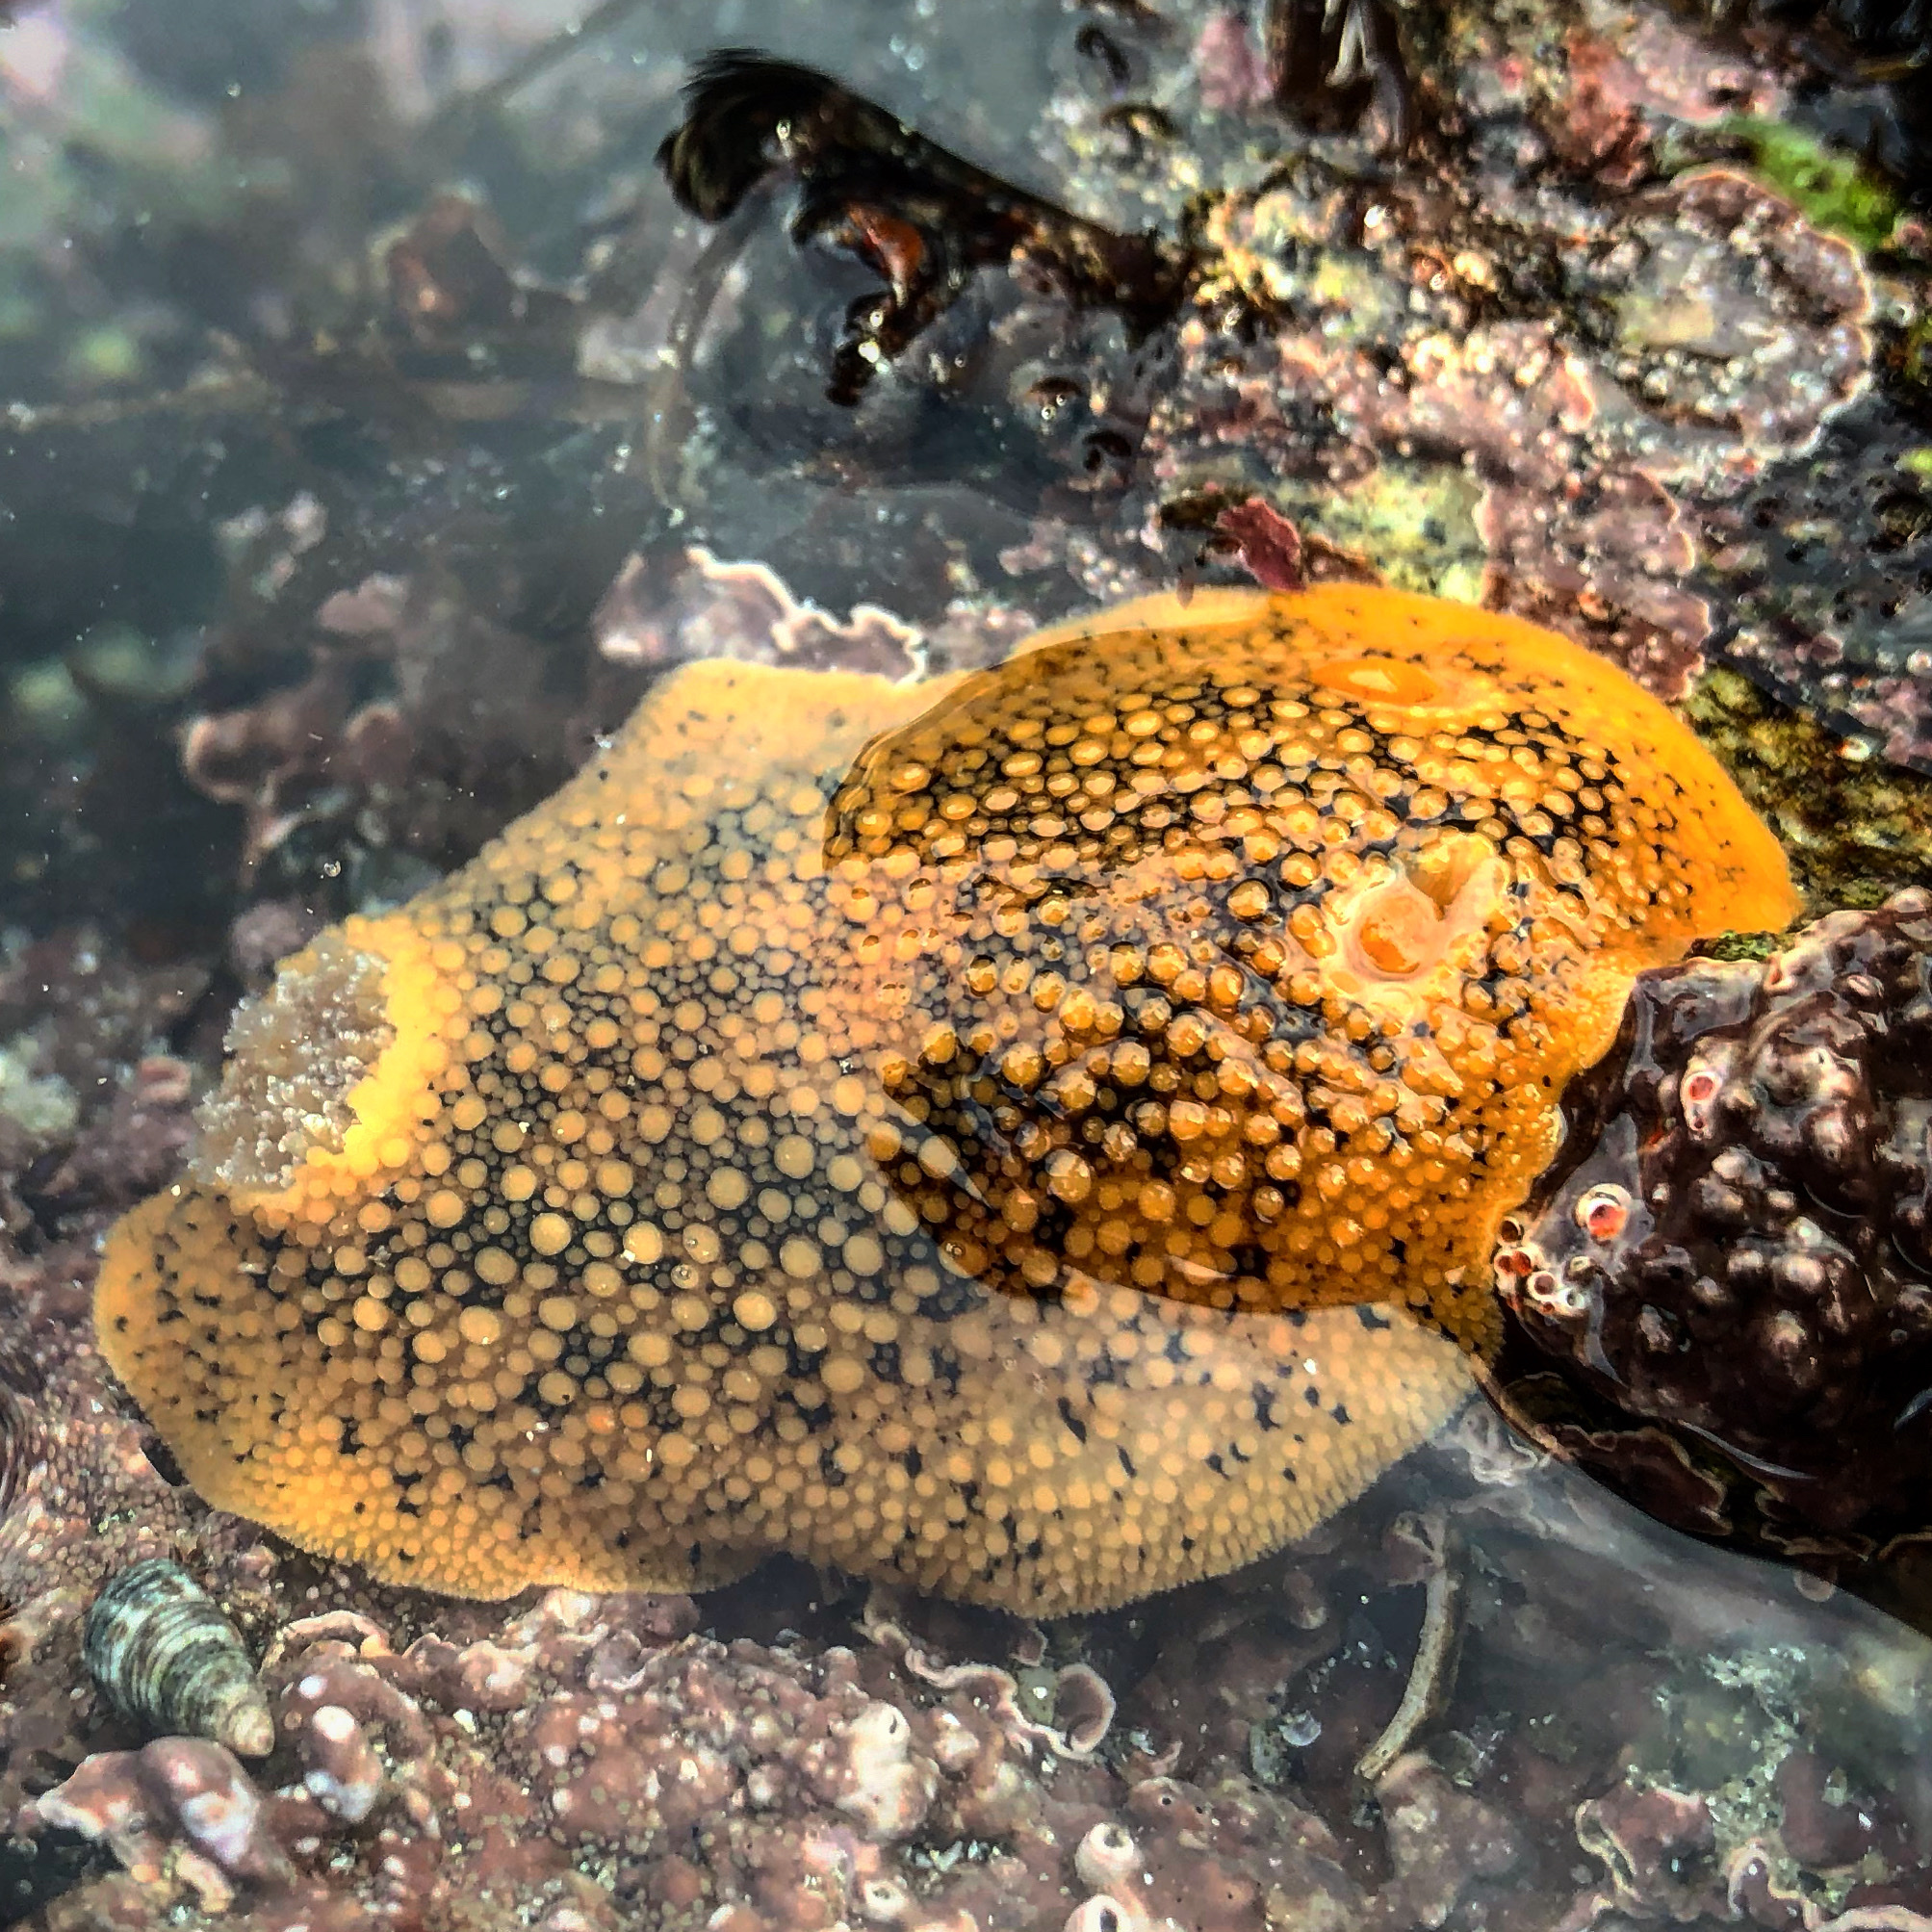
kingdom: Animalia
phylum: Mollusca
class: Gastropoda
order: Nudibranchia
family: Discodorididae
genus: Peltodoris
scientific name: Peltodoris nobilis
